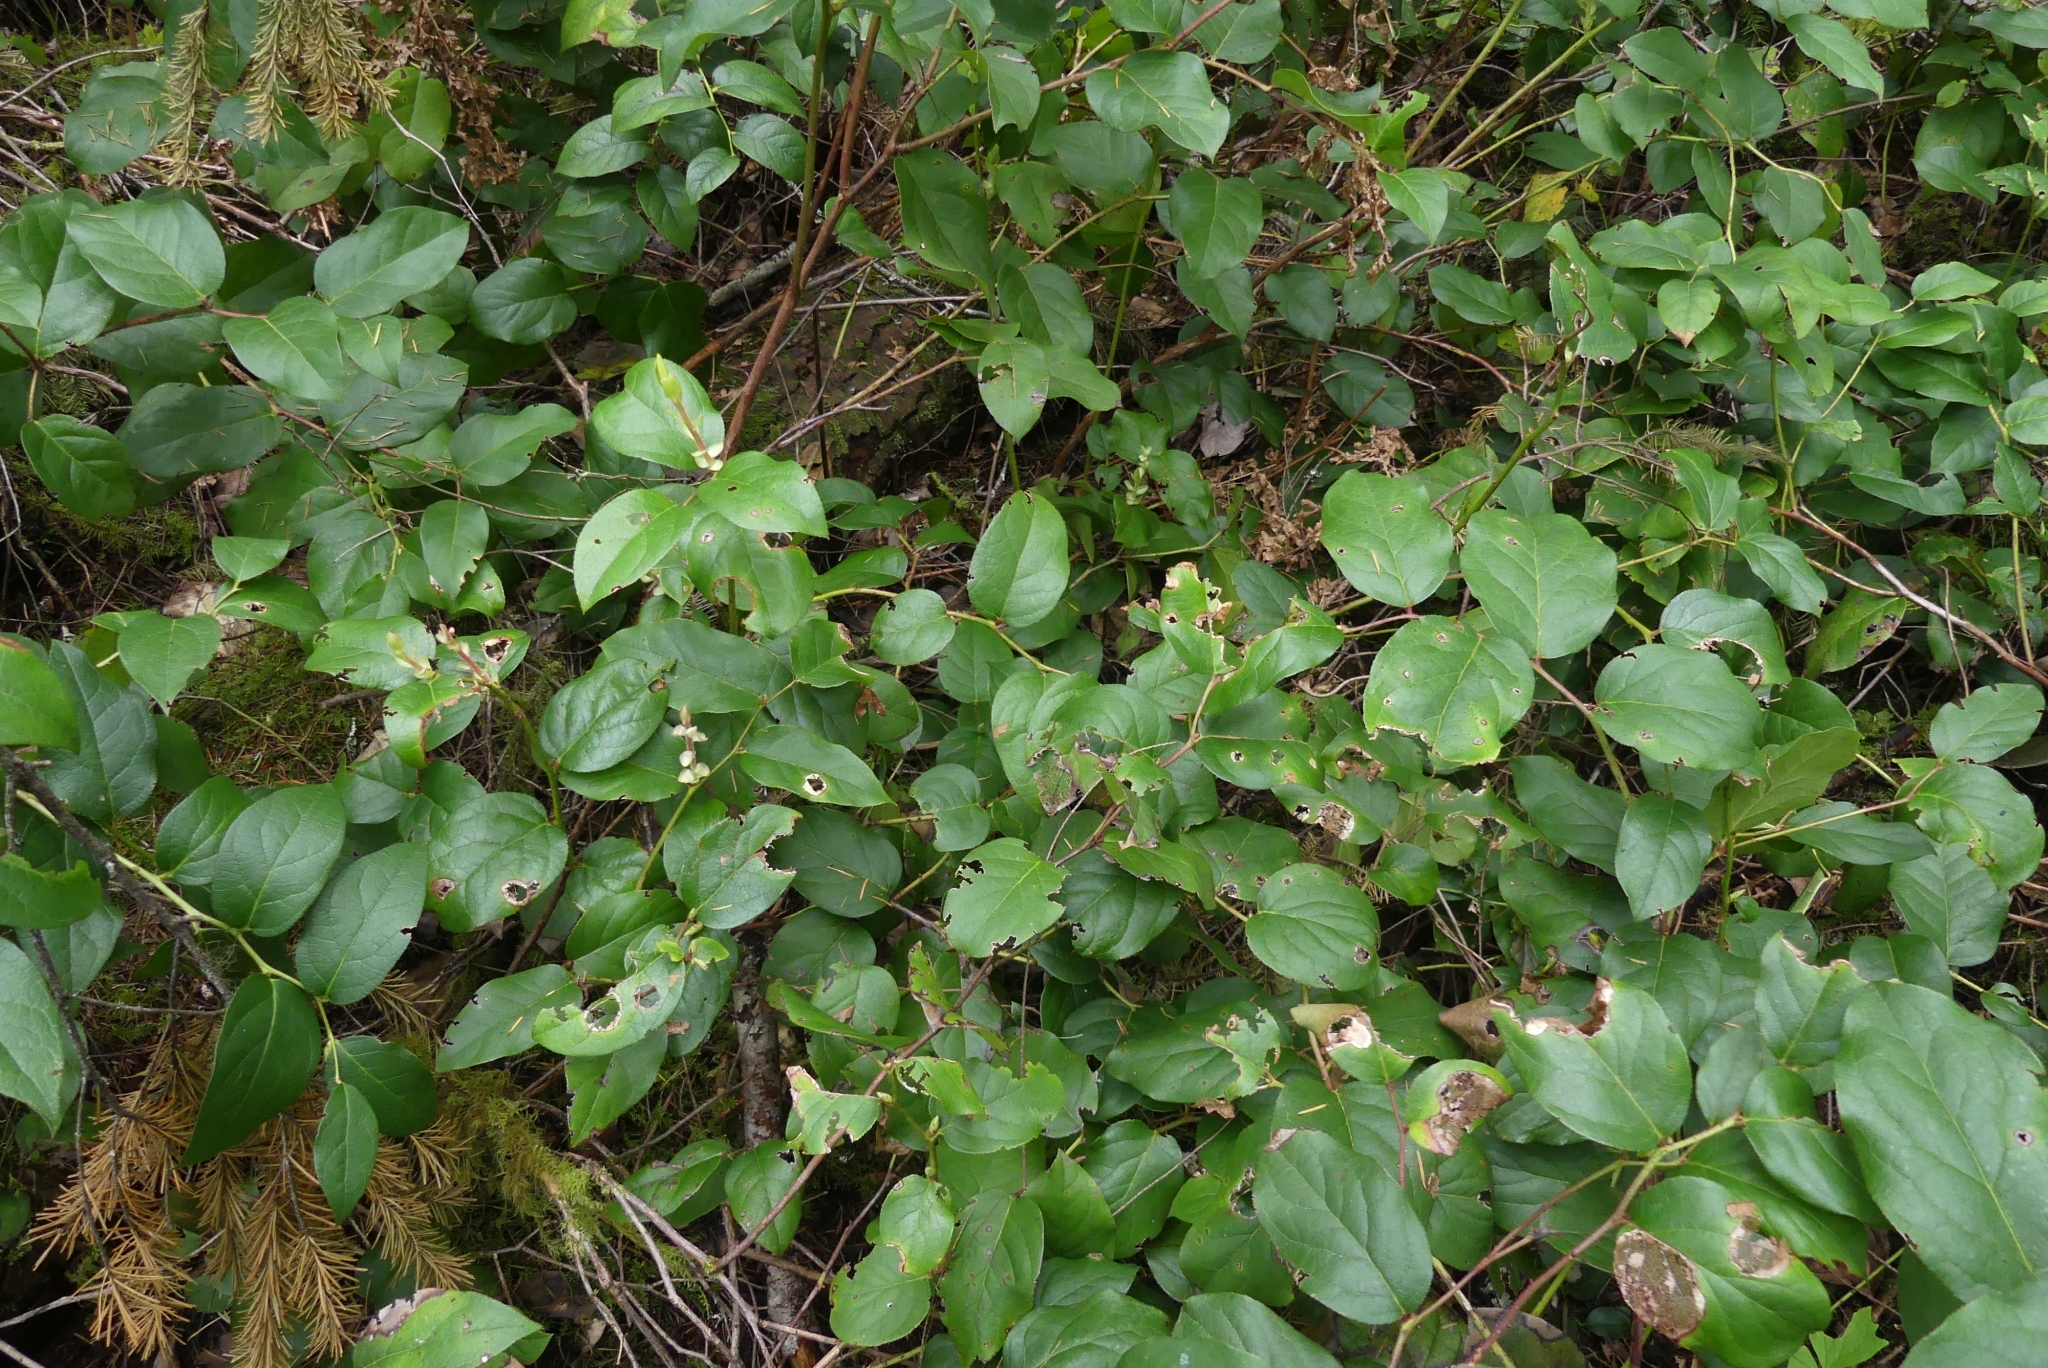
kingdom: Plantae
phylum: Tracheophyta
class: Magnoliopsida
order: Ericales
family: Ericaceae
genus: Gaultheria
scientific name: Gaultheria shallon
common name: Shallon
